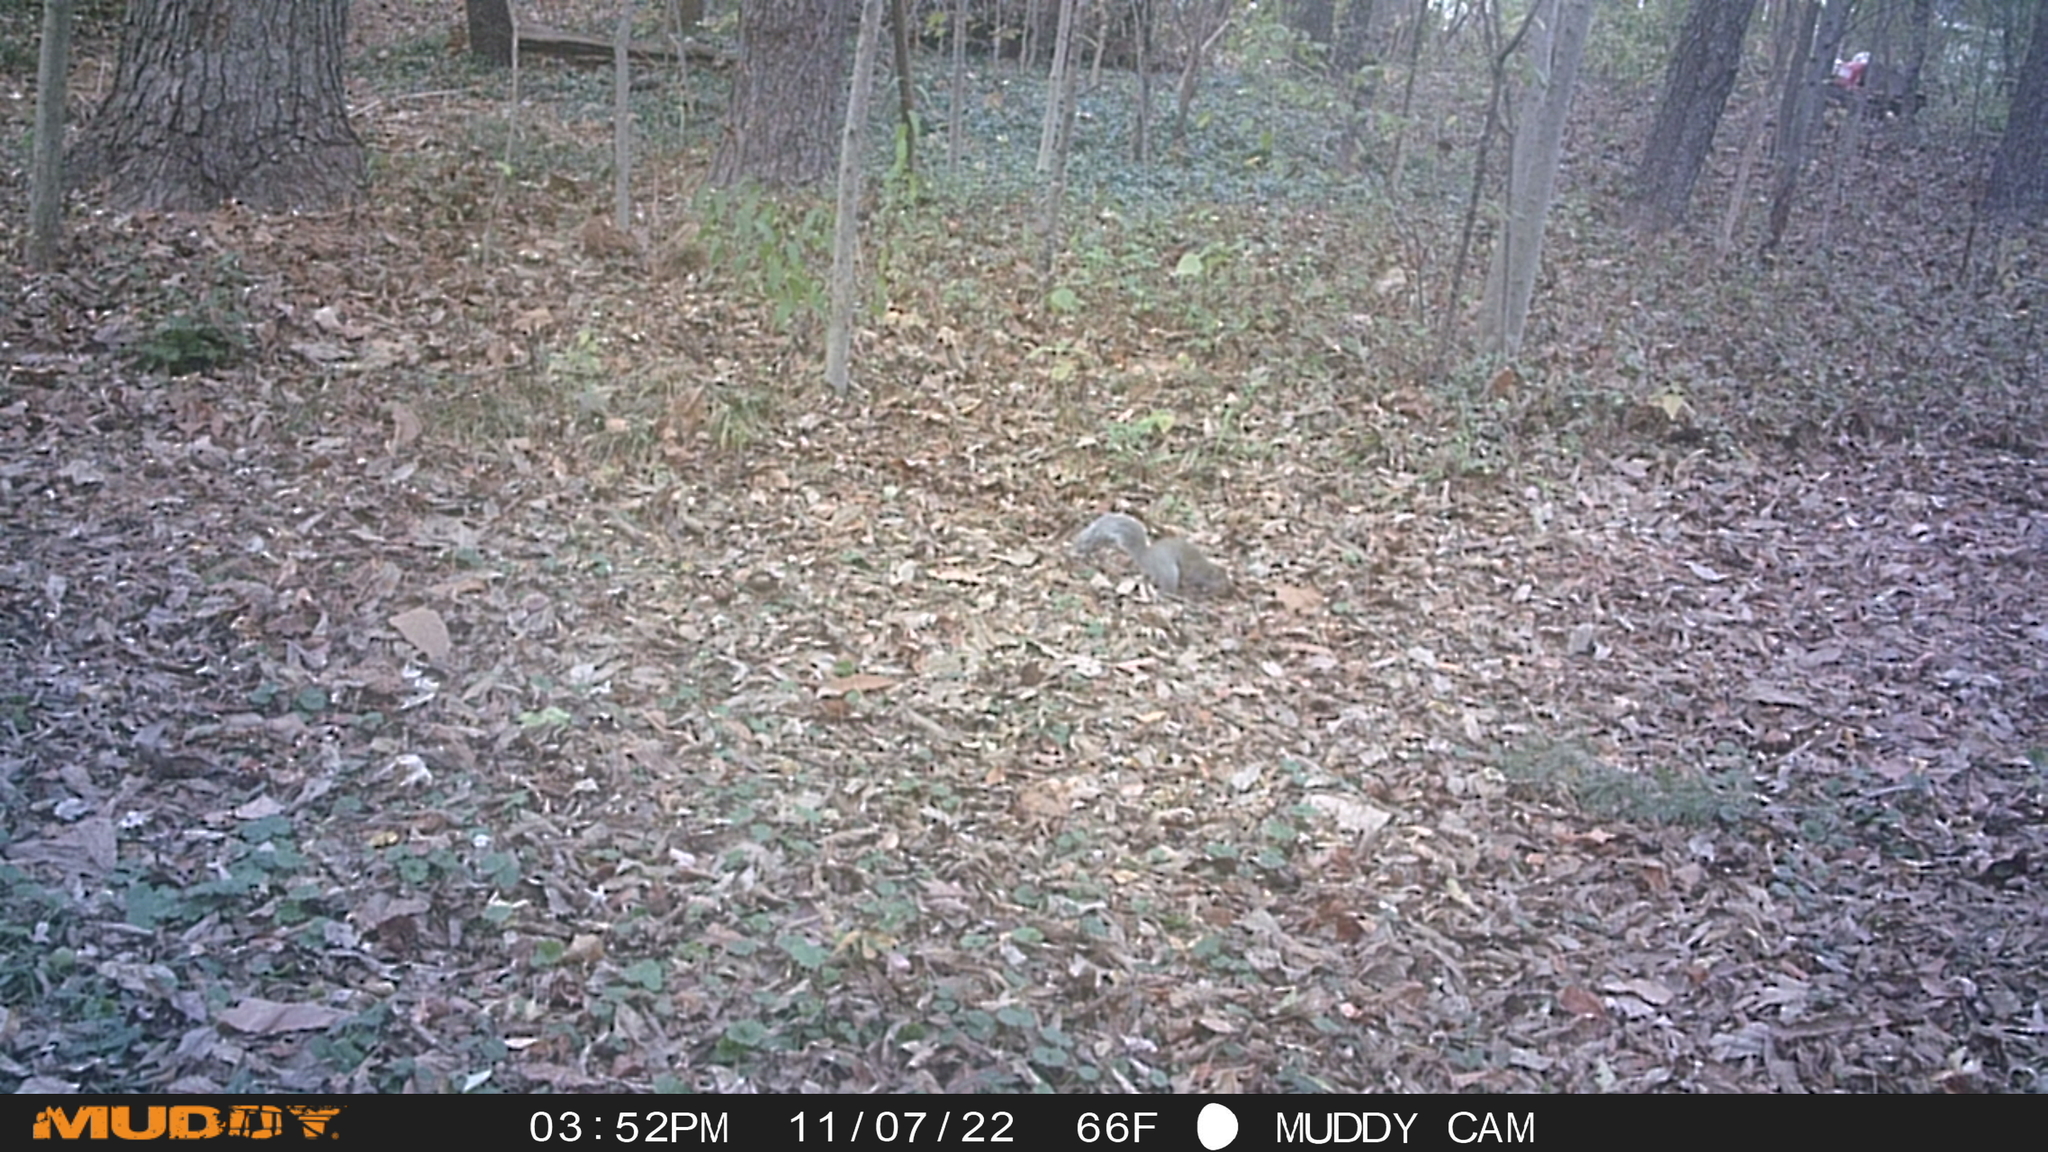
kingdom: Animalia
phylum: Chordata
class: Mammalia
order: Rodentia
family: Sciuridae
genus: Sciurus
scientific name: Sciurus carolinensis
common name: Eastern gray squirrel
